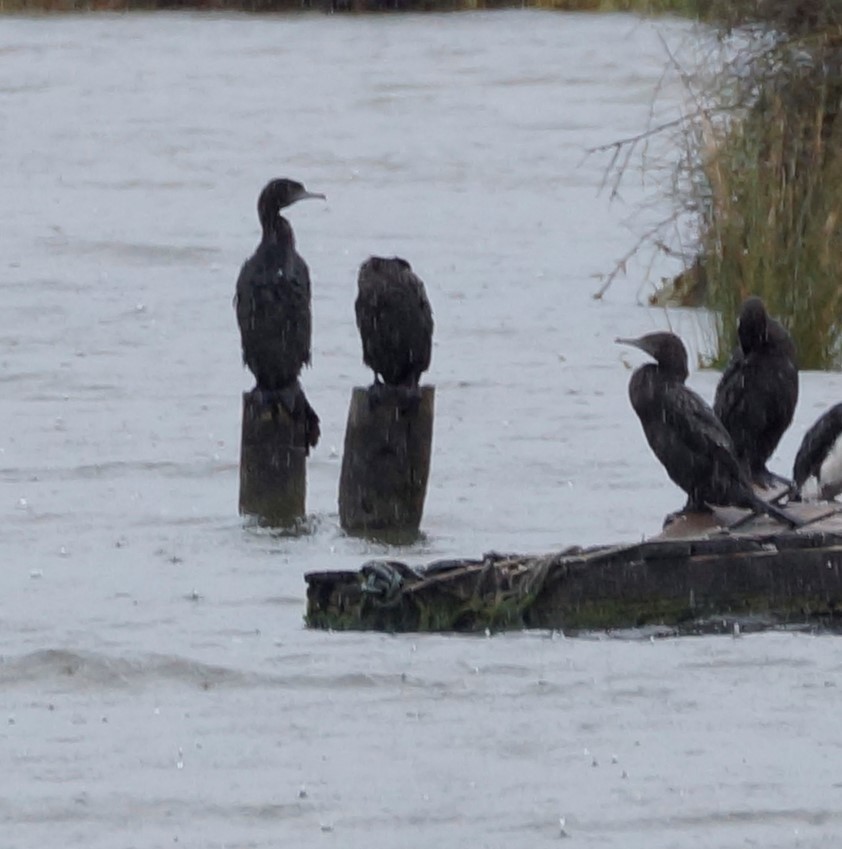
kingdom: Animalia
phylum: Chordata
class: Aves
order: Suliformes
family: Phalacrocoracidae
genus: Phalacrocorax
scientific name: Phalacrocorax sulcirostris
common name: Little black cormorant
